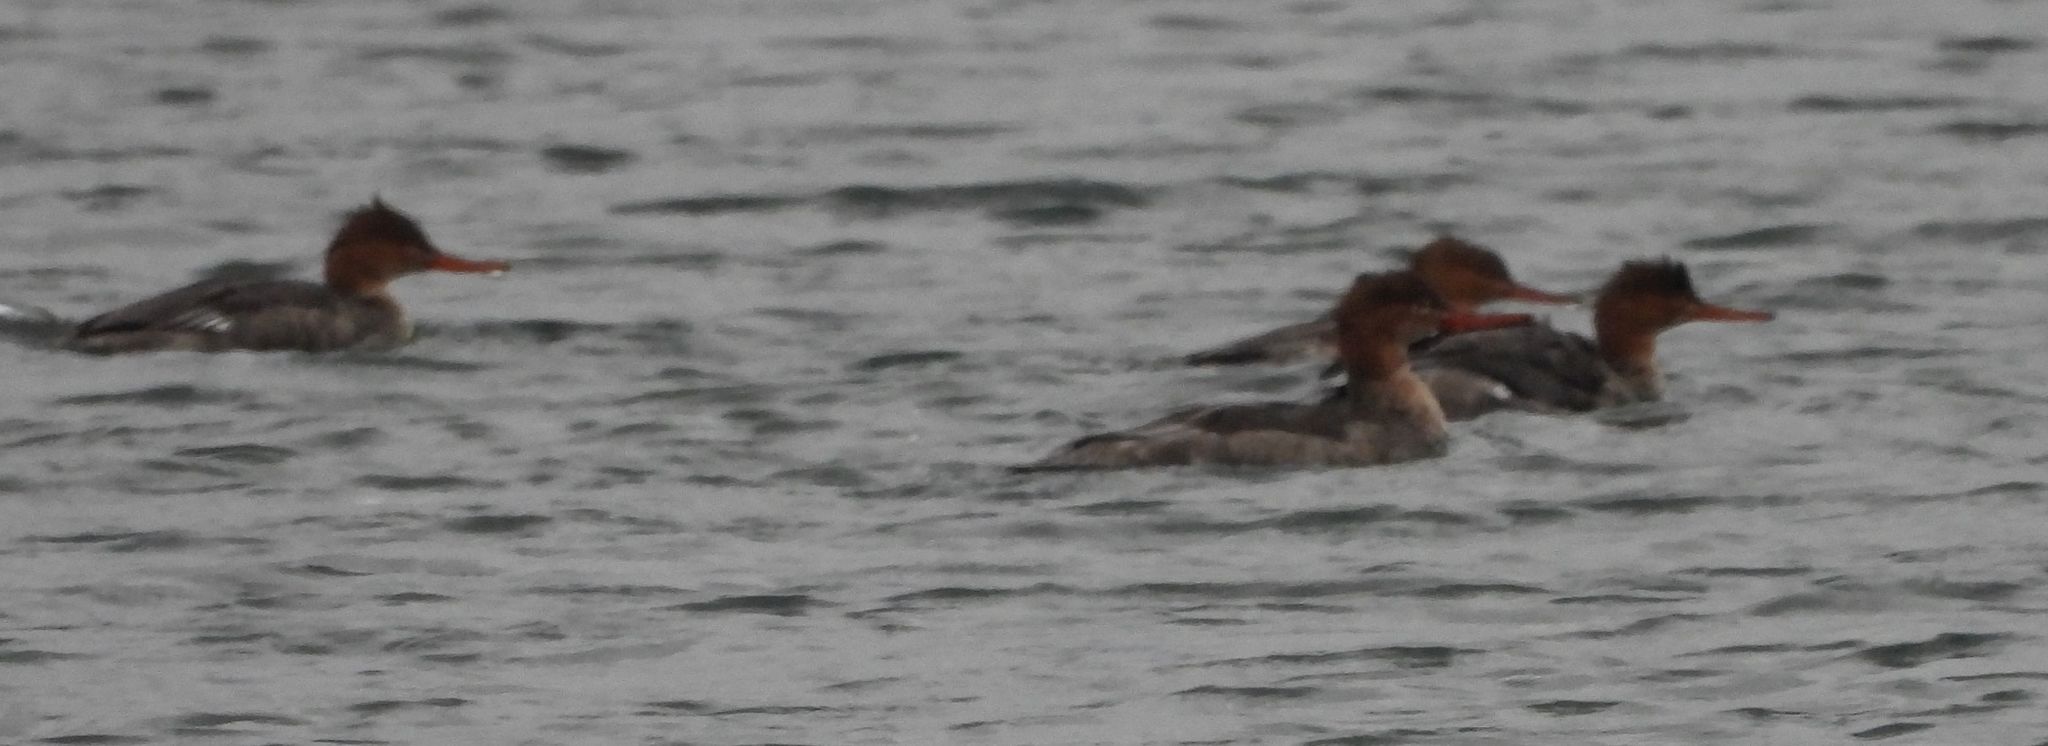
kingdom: Animalia
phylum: Chordata
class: Aves
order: Anseriformes
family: Anatidae
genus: Mergus
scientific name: Mergus serrator
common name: Red-breasted merganser
